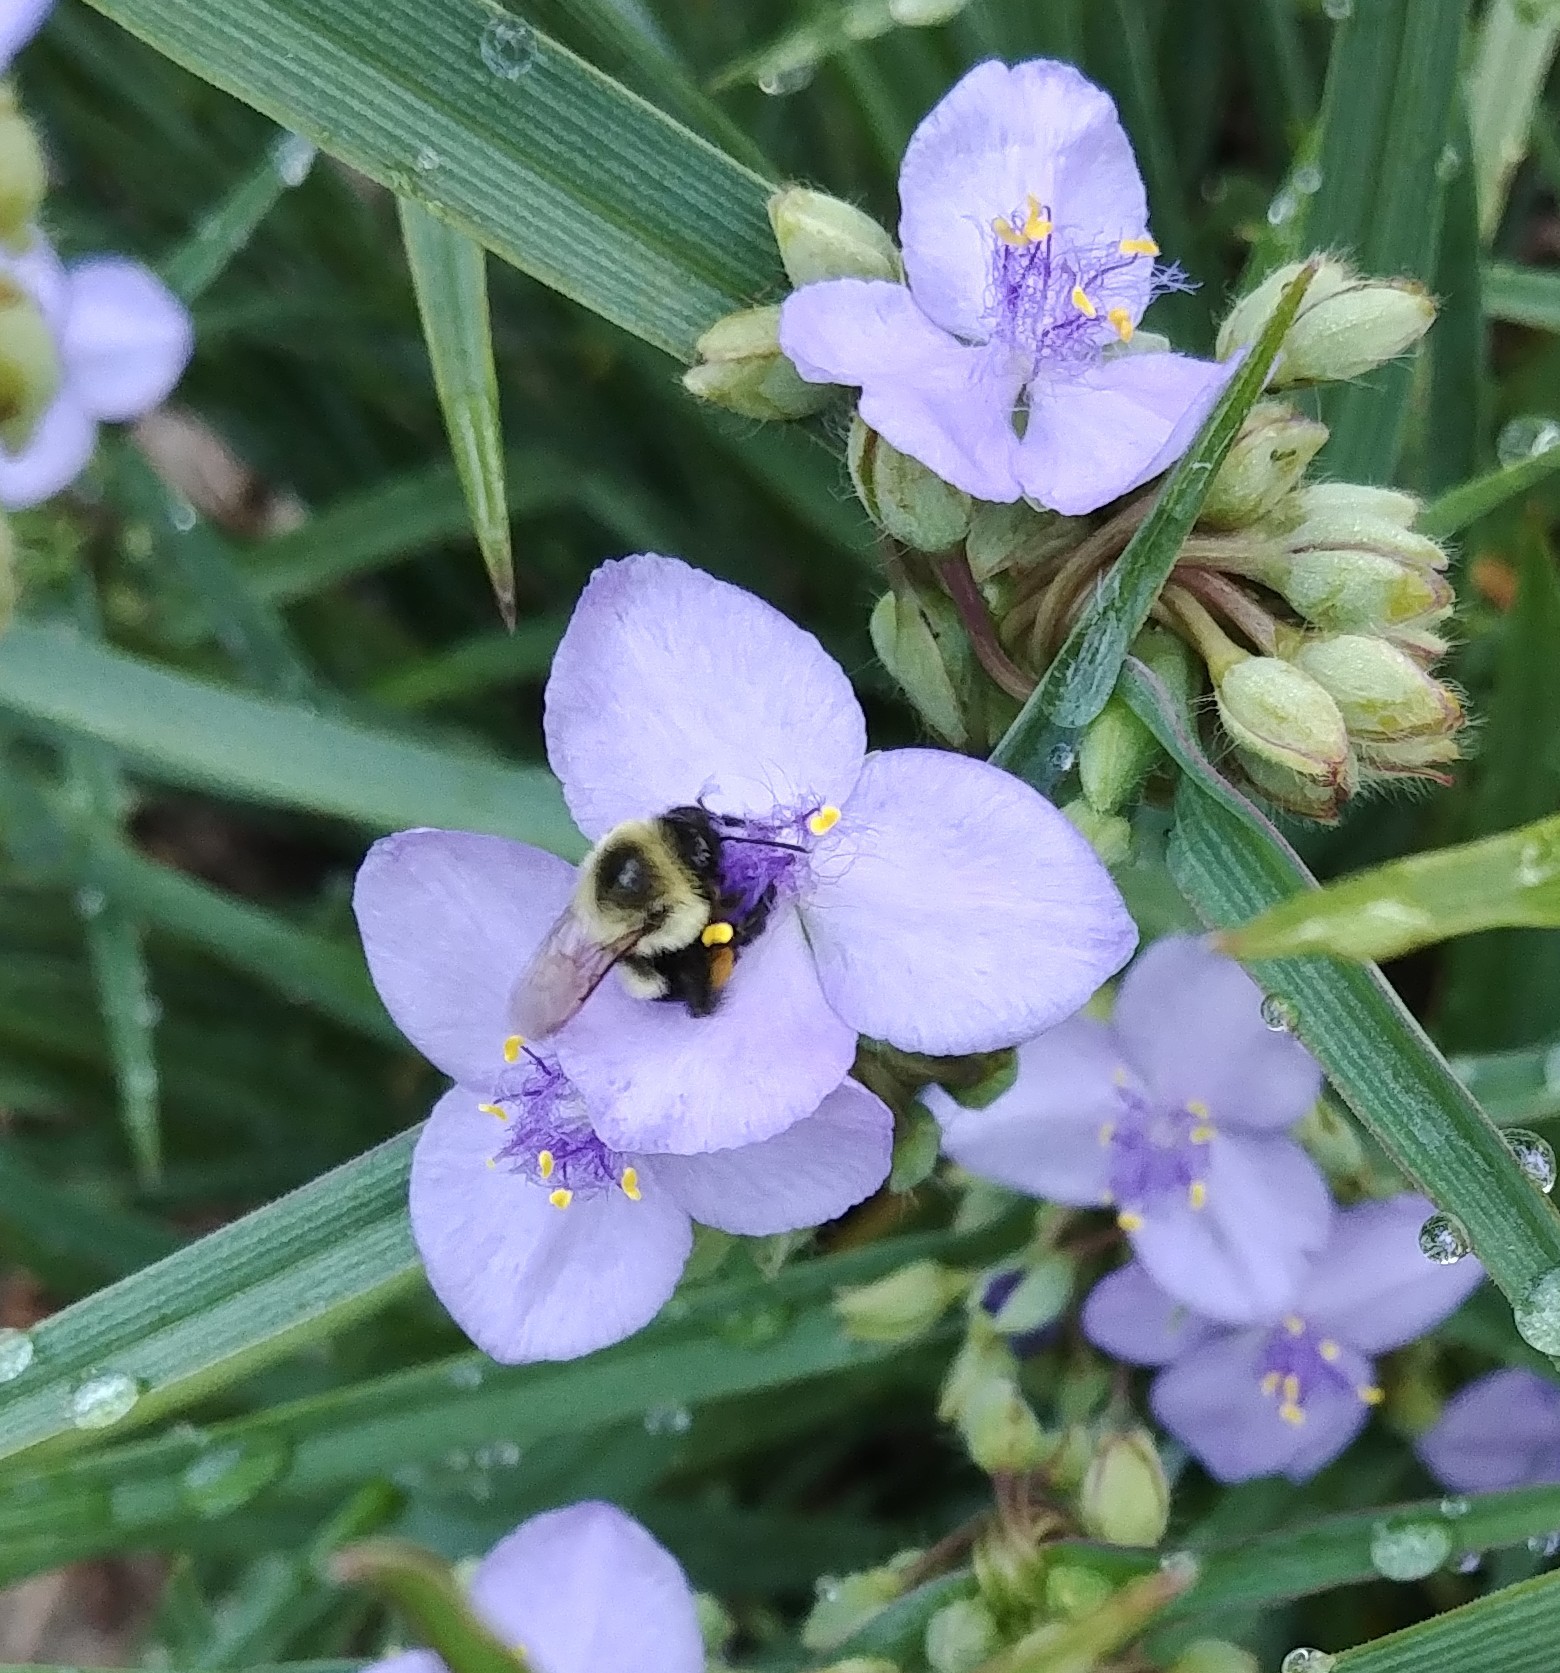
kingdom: Animalia
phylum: Arthropoda
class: Insecta
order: Hymenoptera
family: Apidae
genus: Bombus
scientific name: Bombus impatiens
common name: Common eastern bumble bee
